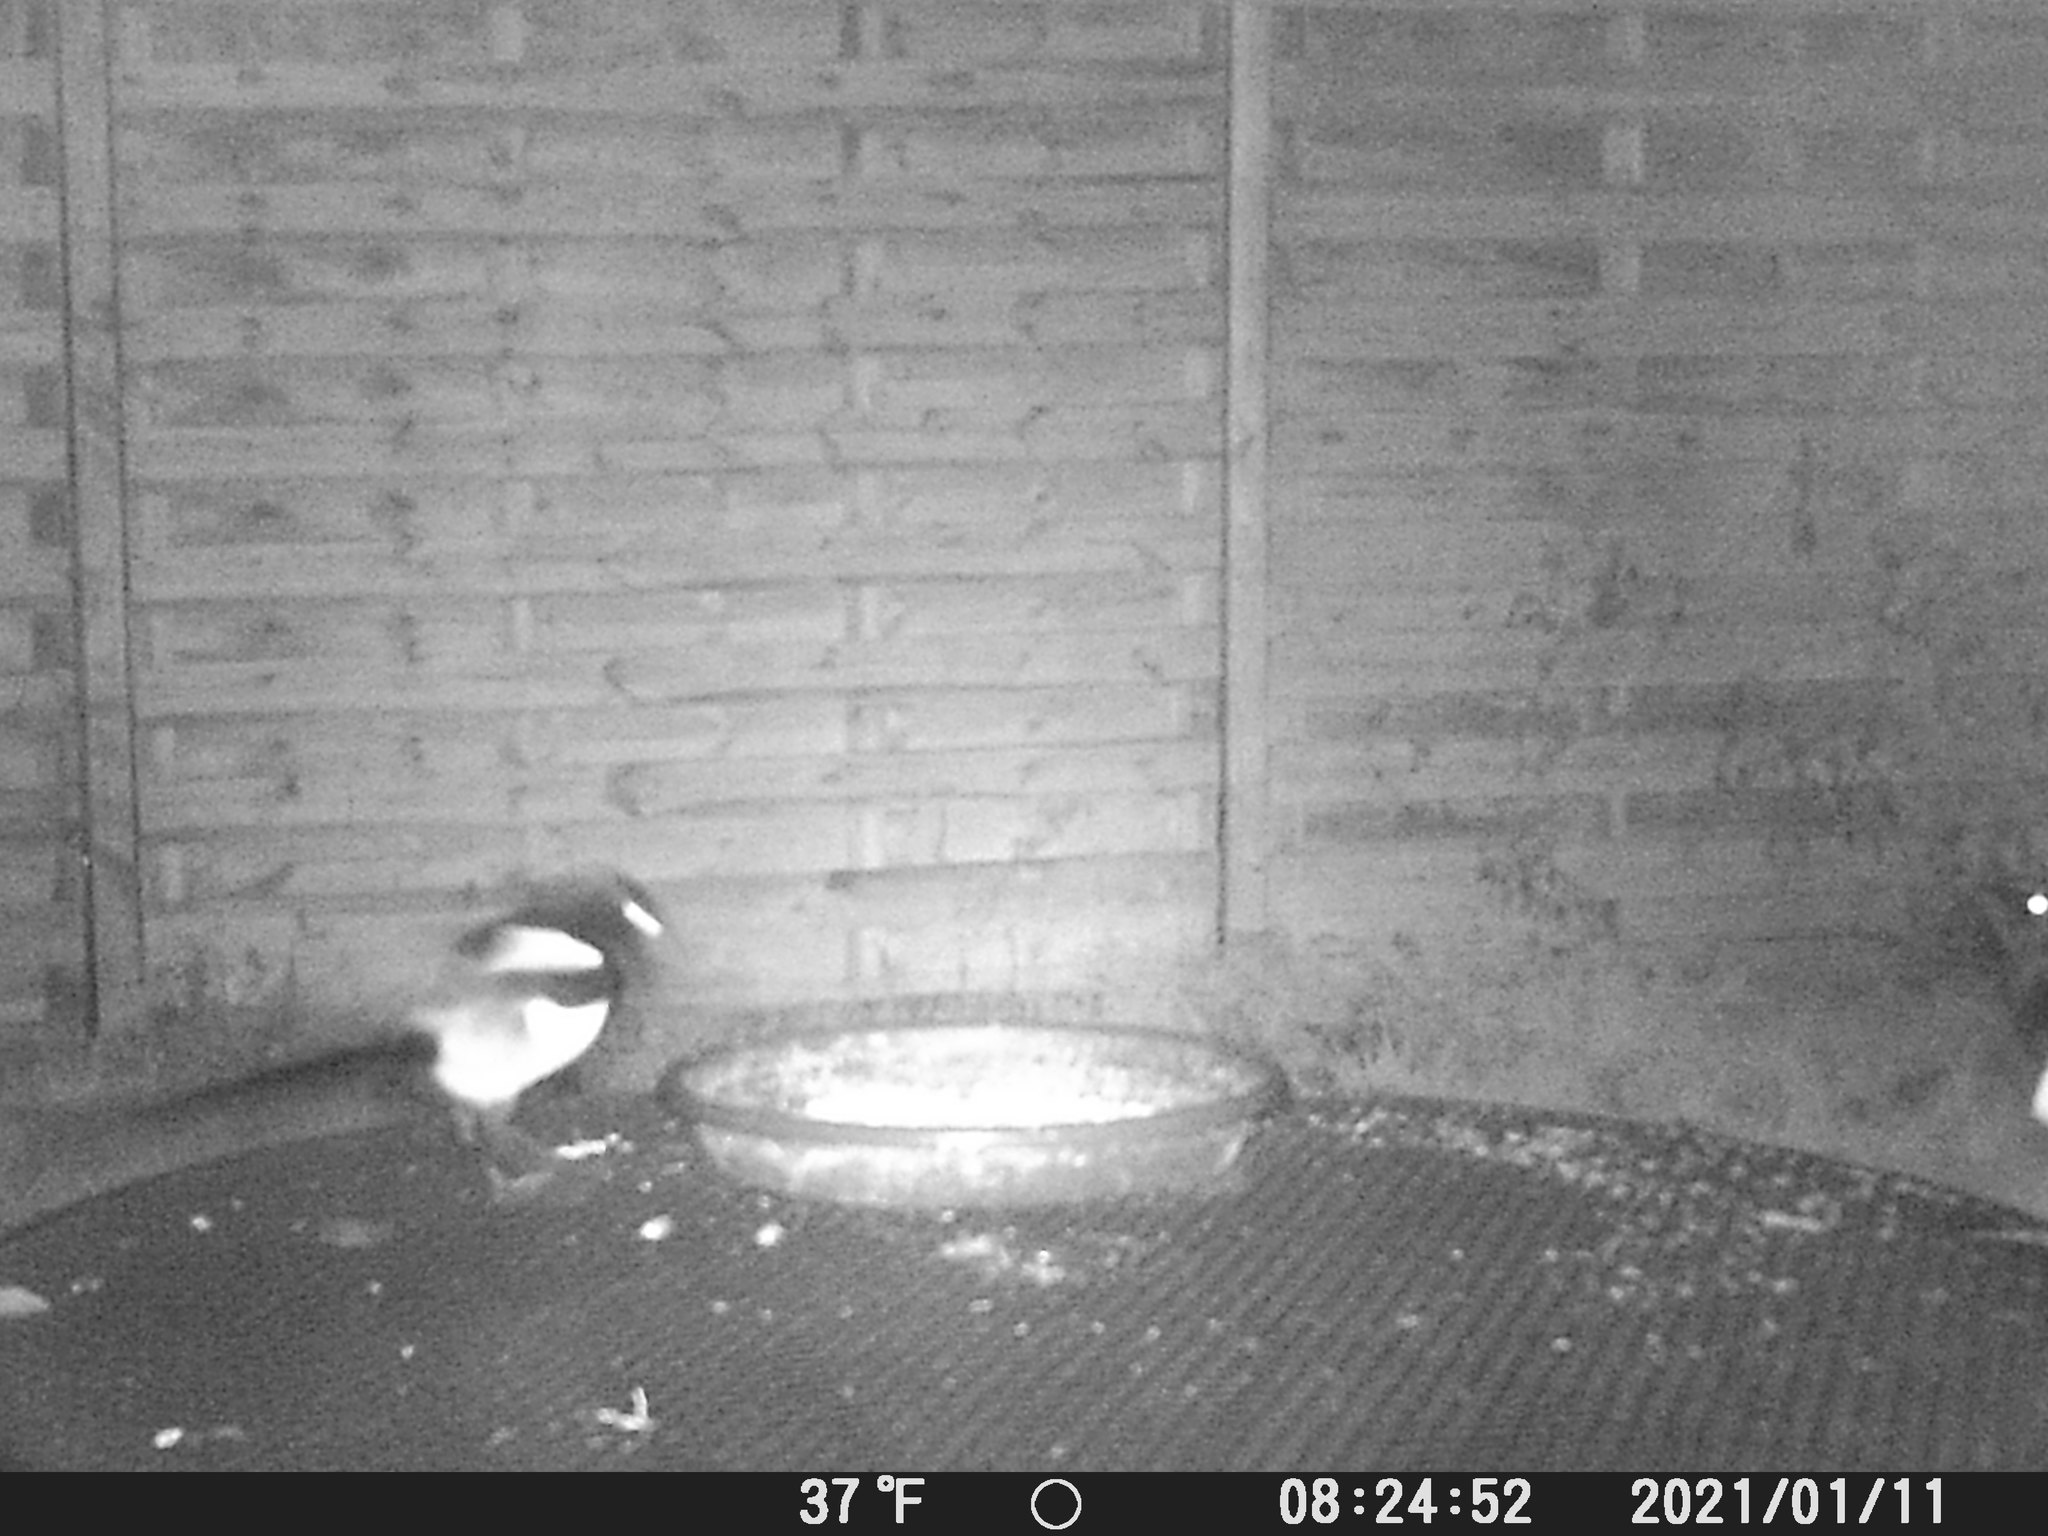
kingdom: Animalia
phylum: Chordata
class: Aves
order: Passeriformes
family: Corvidae
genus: Pica
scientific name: Pica pica
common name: Eurasian magpie
